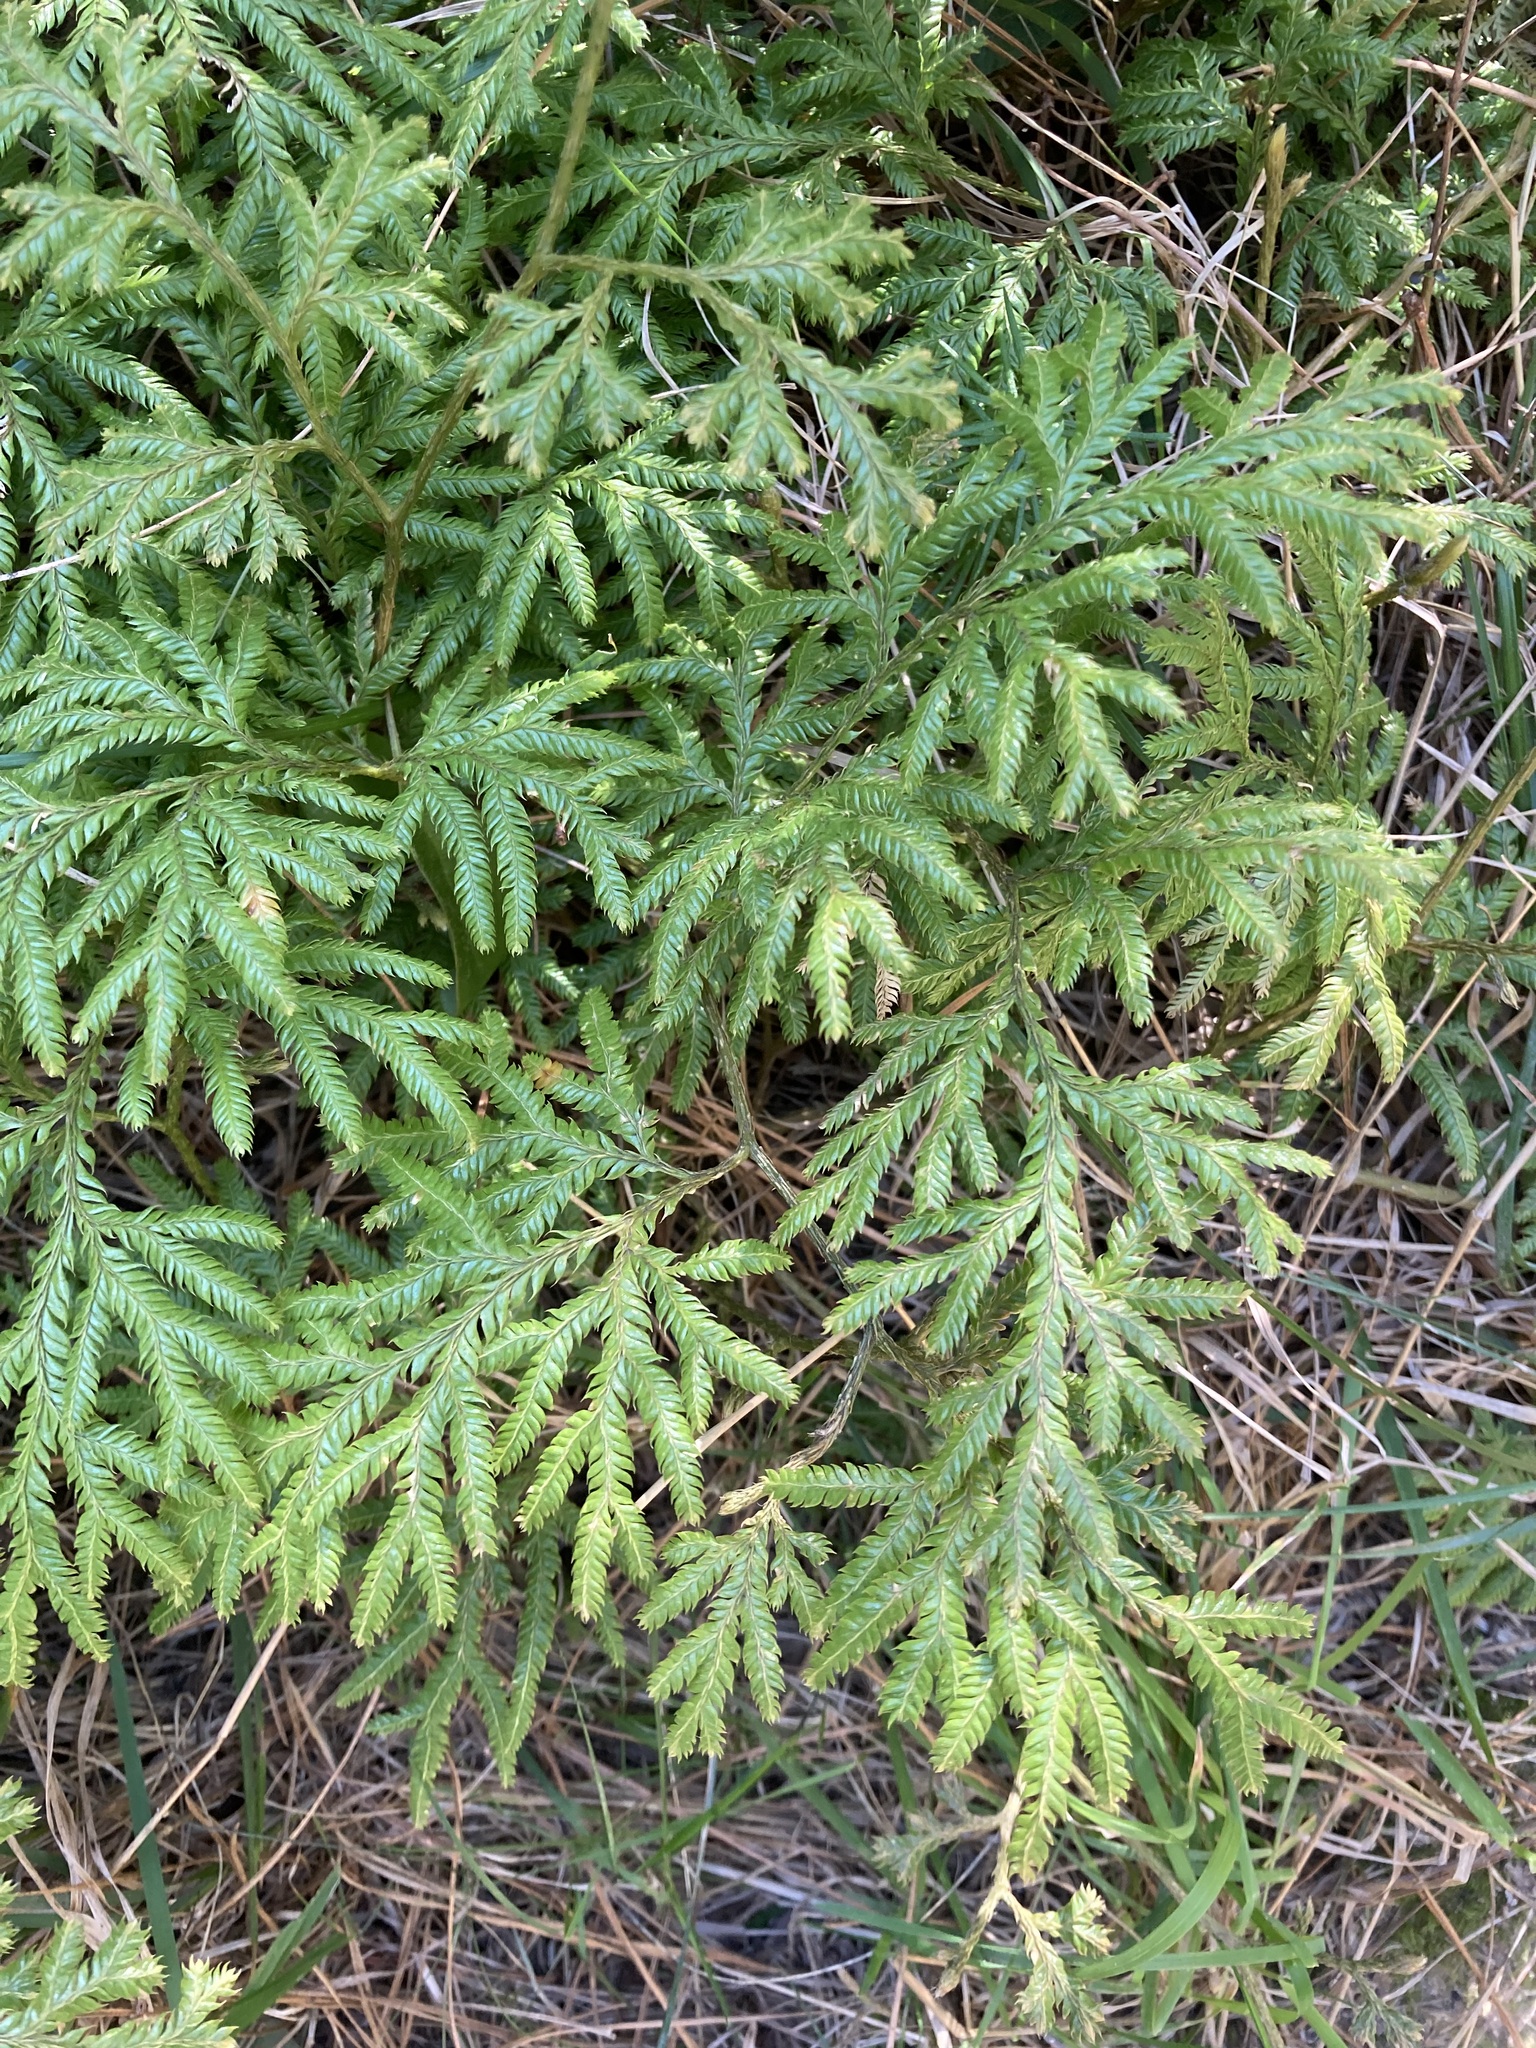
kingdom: Plantae
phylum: Tracheophyta
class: Lycopodiopsida
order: Lycopodiales
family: Lycopodiaceae
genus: Lycopodium
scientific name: Lycopodium volubile
